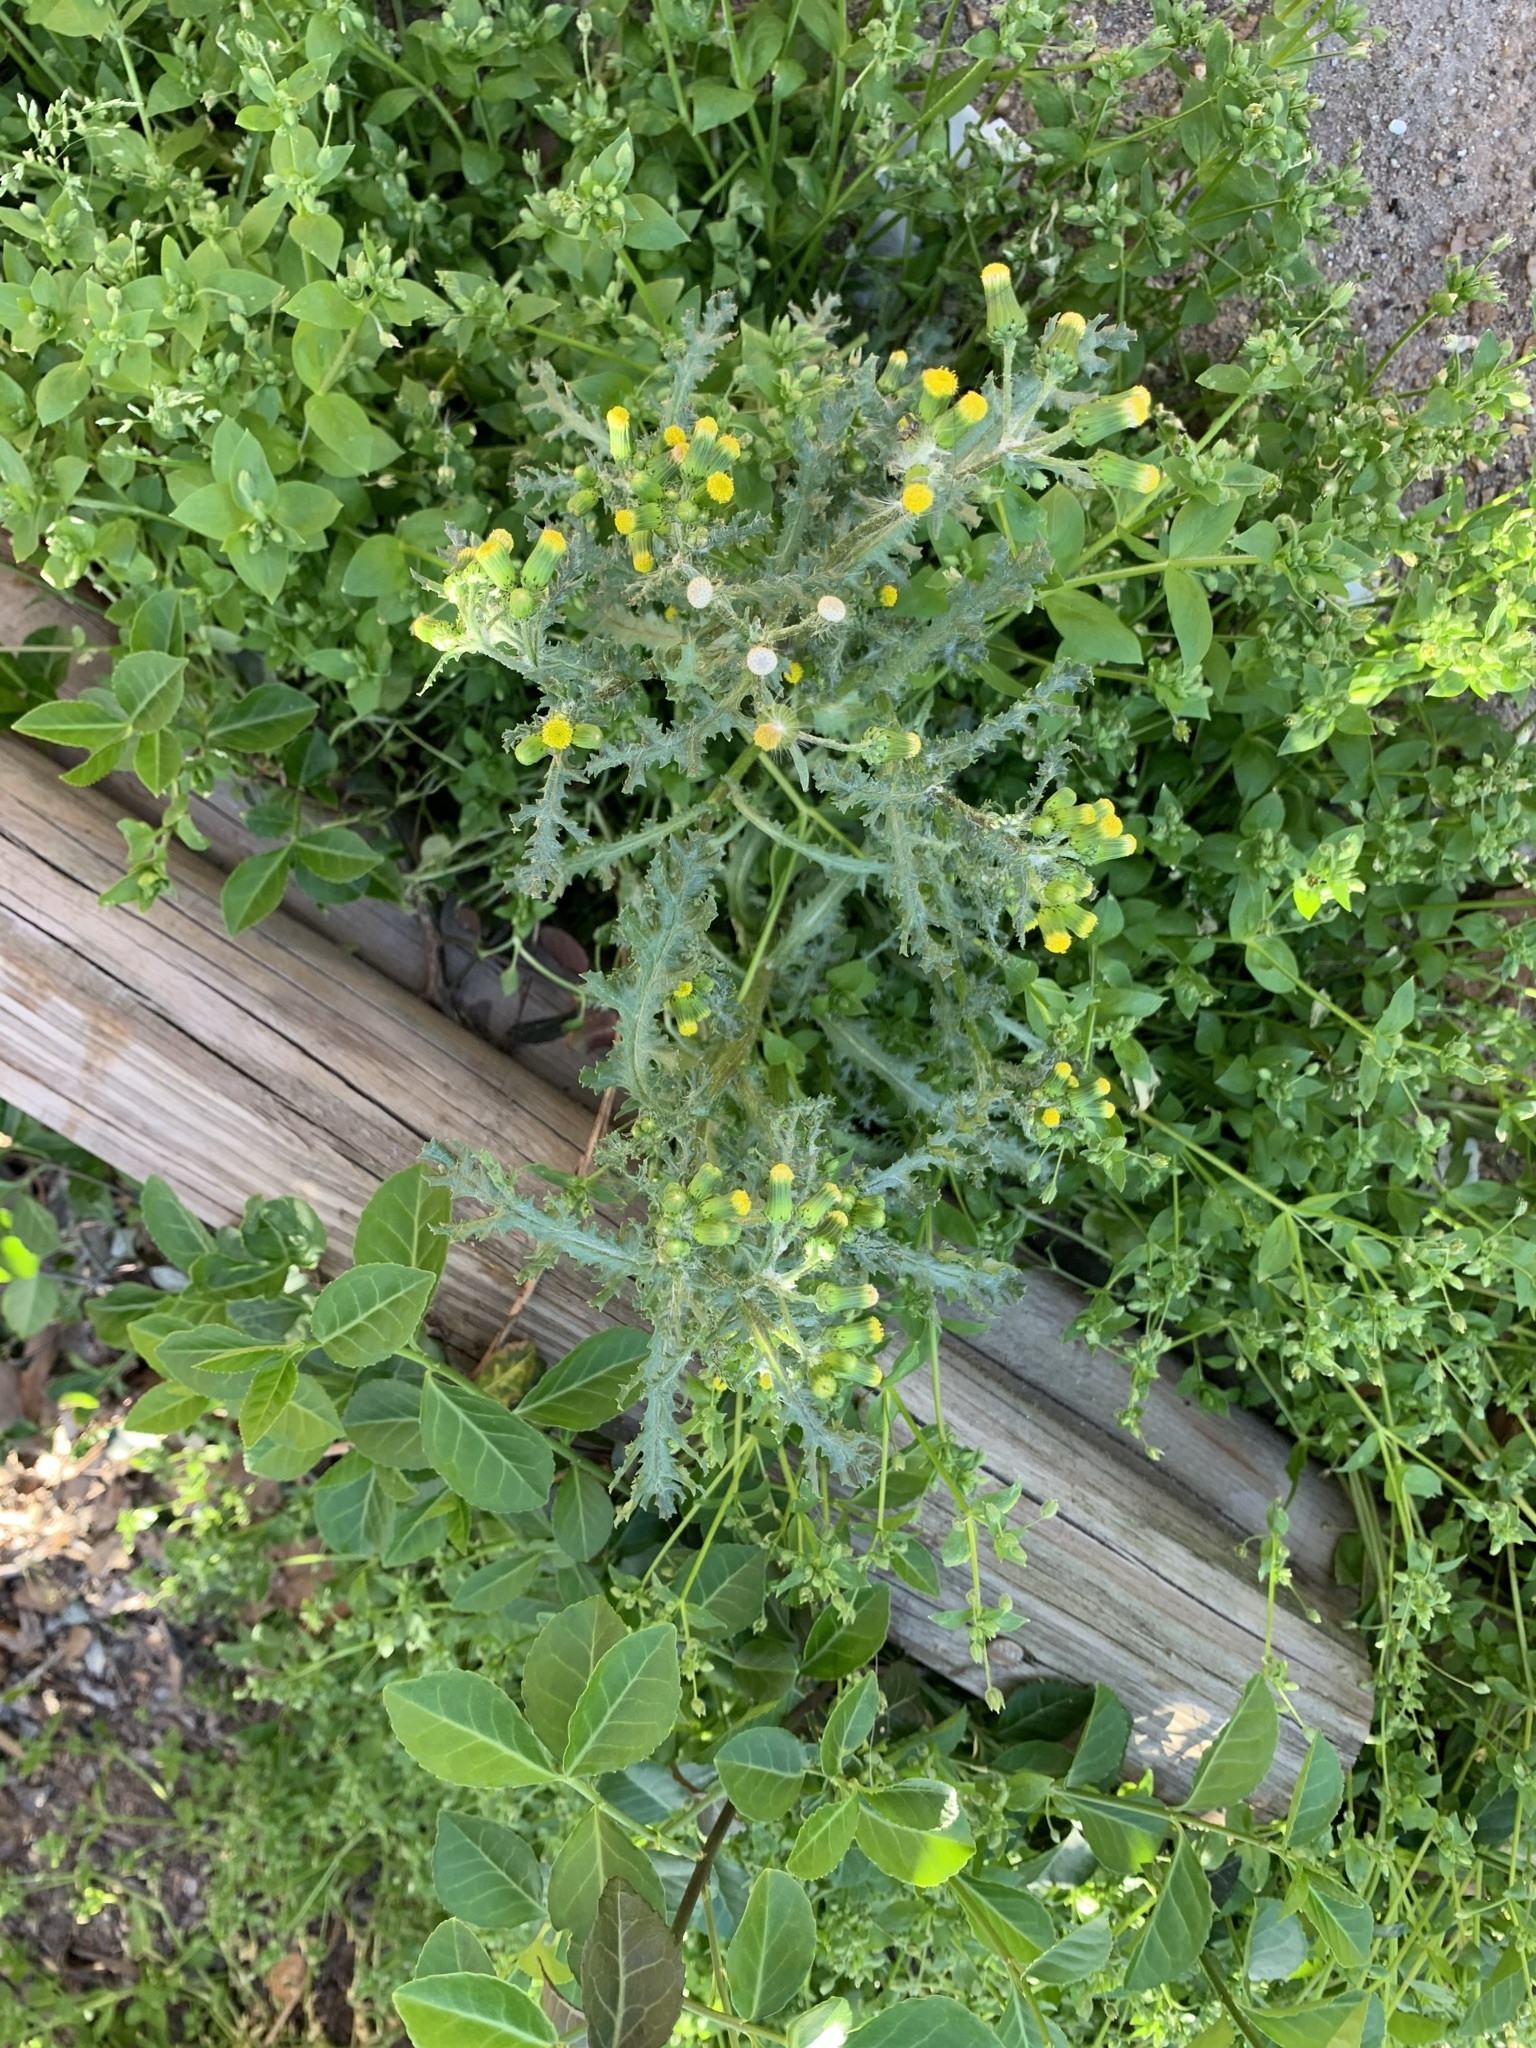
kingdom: Plantae
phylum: Tracheophyta
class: Magnoliopsida
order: Asterales
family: Asteraceae
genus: Senecio
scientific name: Senecio vulgaris
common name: Old-man-in-the-spring
